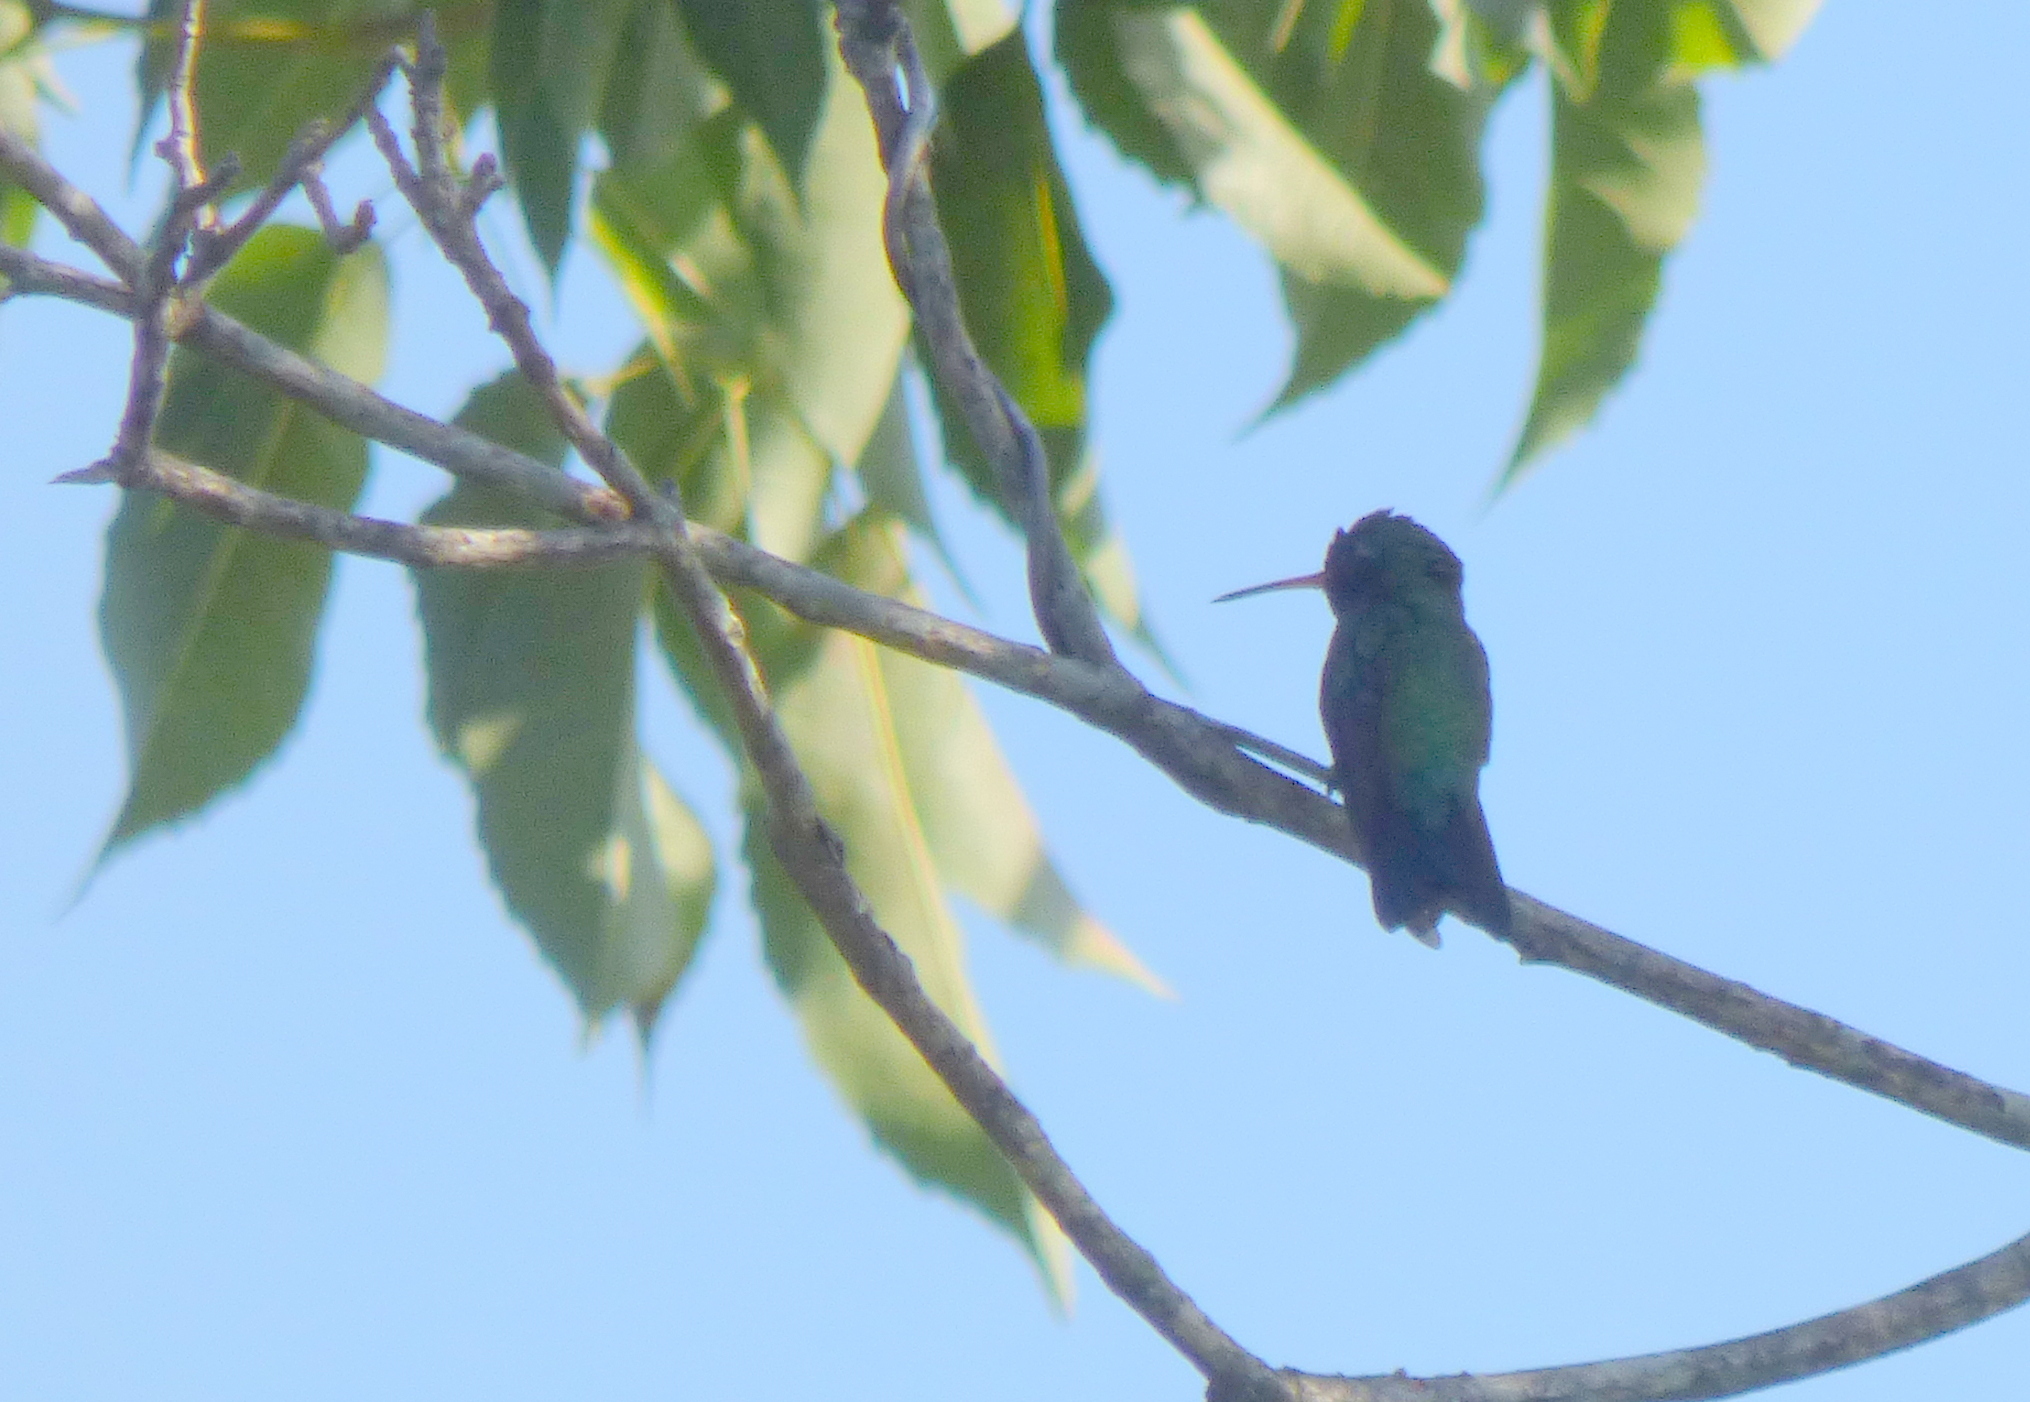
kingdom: Animalia
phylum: Chordata
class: Aves
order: Apodiformes
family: Trochilidae
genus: Chlorostilbon
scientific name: Chlorostilbon lucidus
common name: Glittering-bellied emerald
